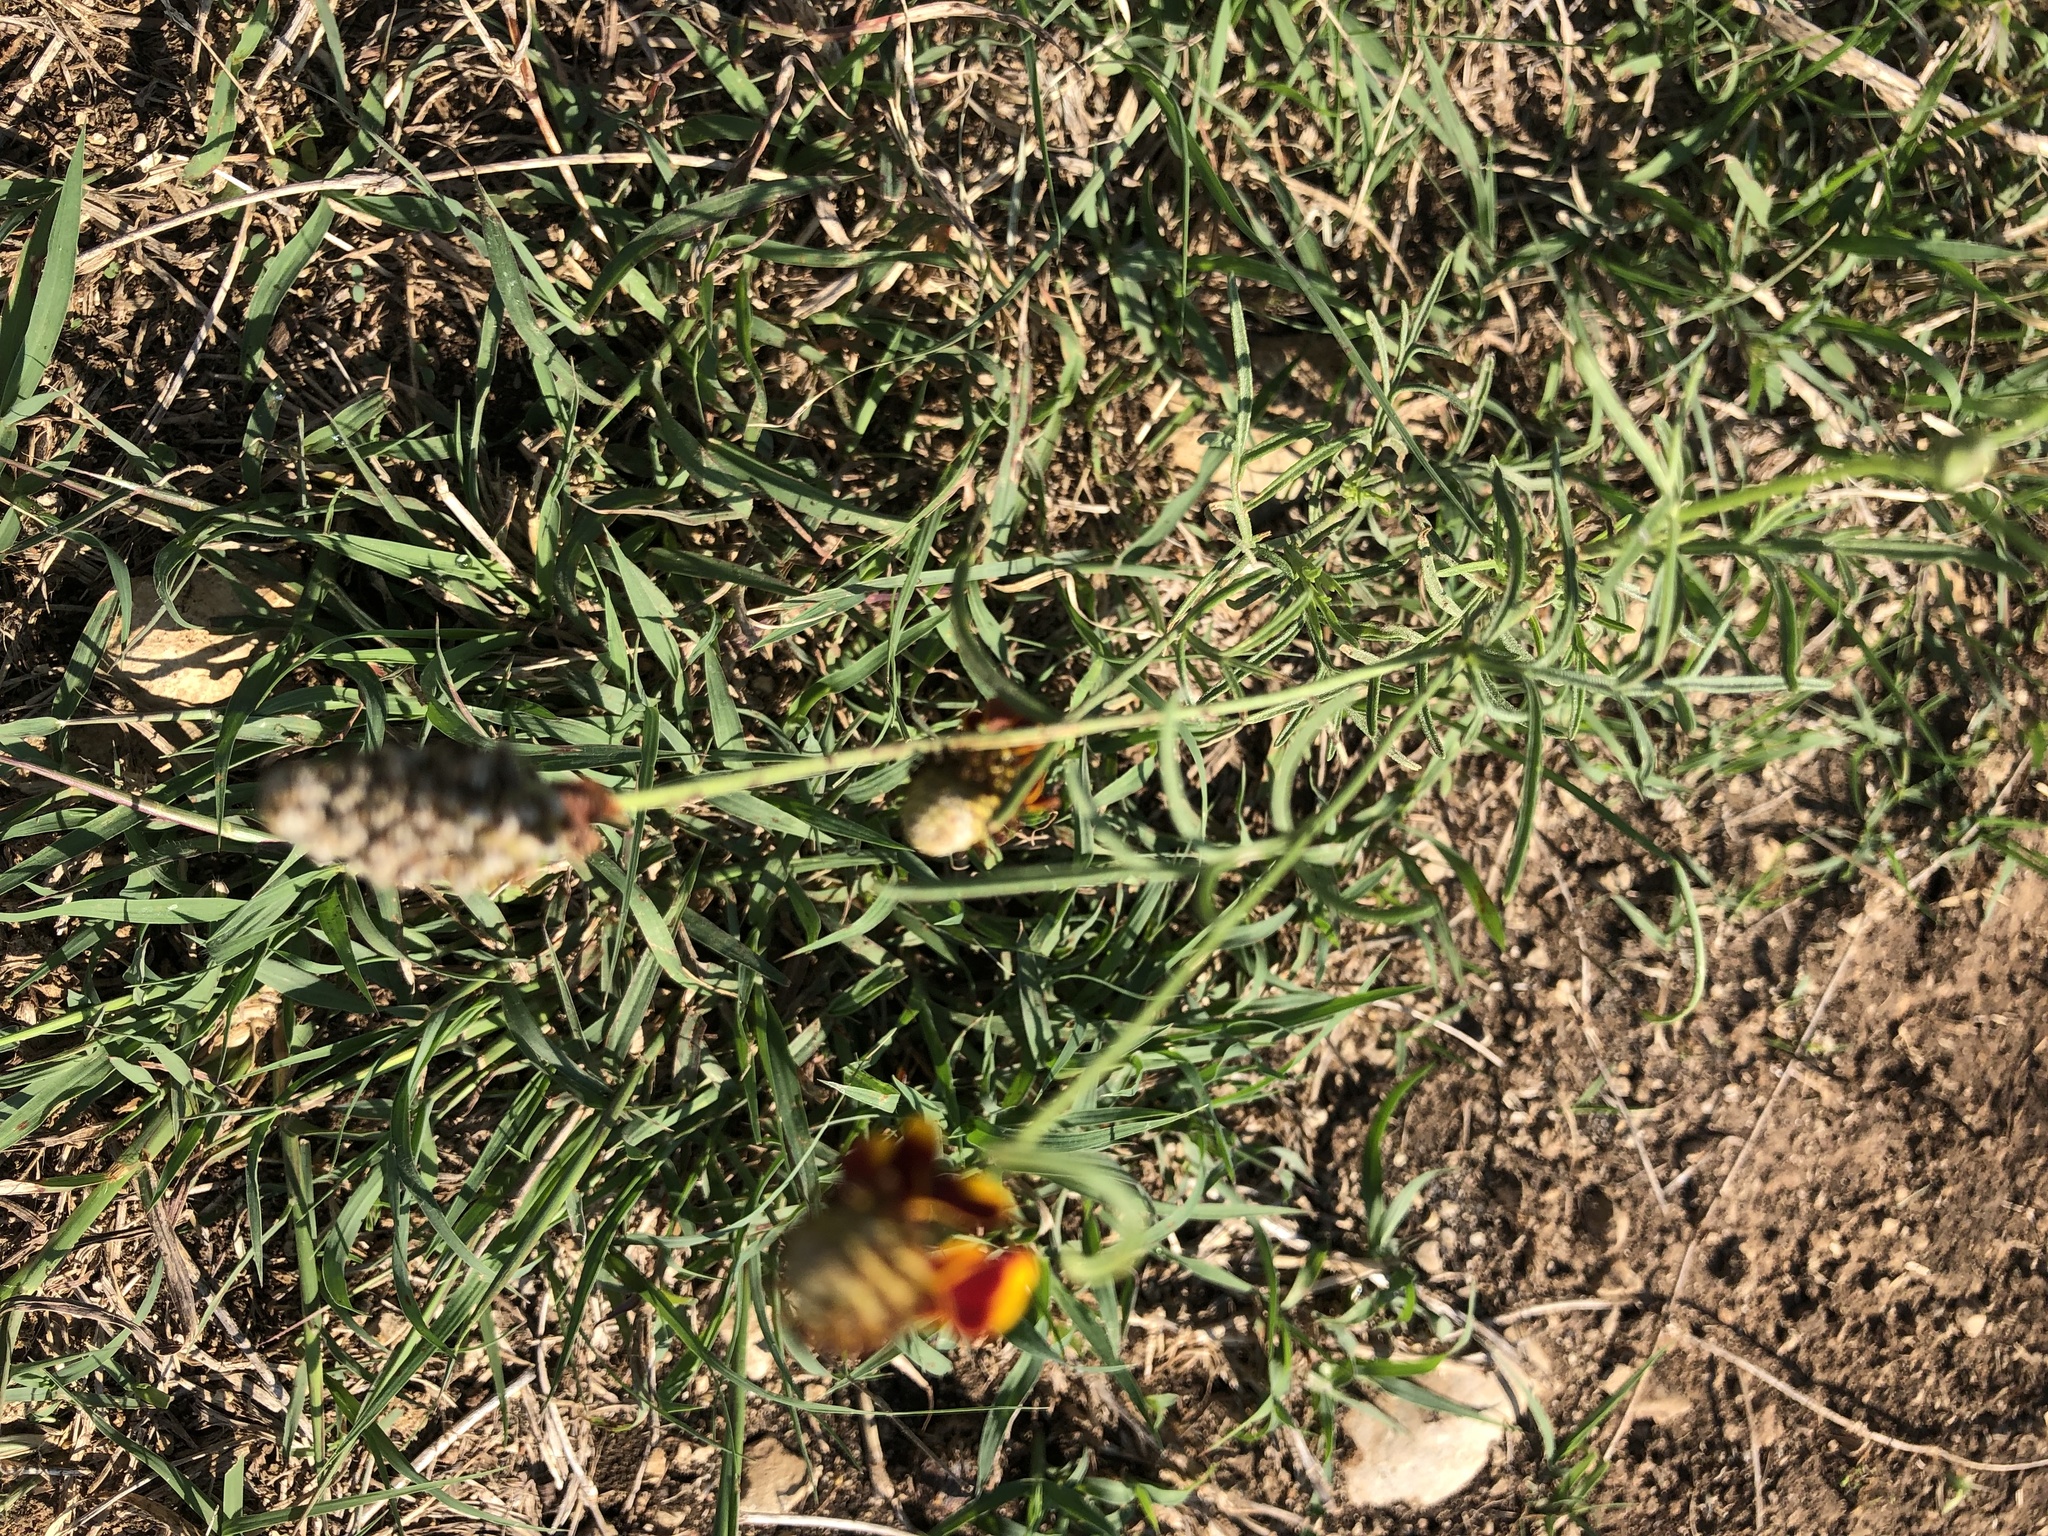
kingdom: Plantae
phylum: Tracheophyta
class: Magnoliopsida
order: Asterales
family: Asteraceae
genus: Ratibida
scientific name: Ratibida columnifera
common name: Prairie coneflower
